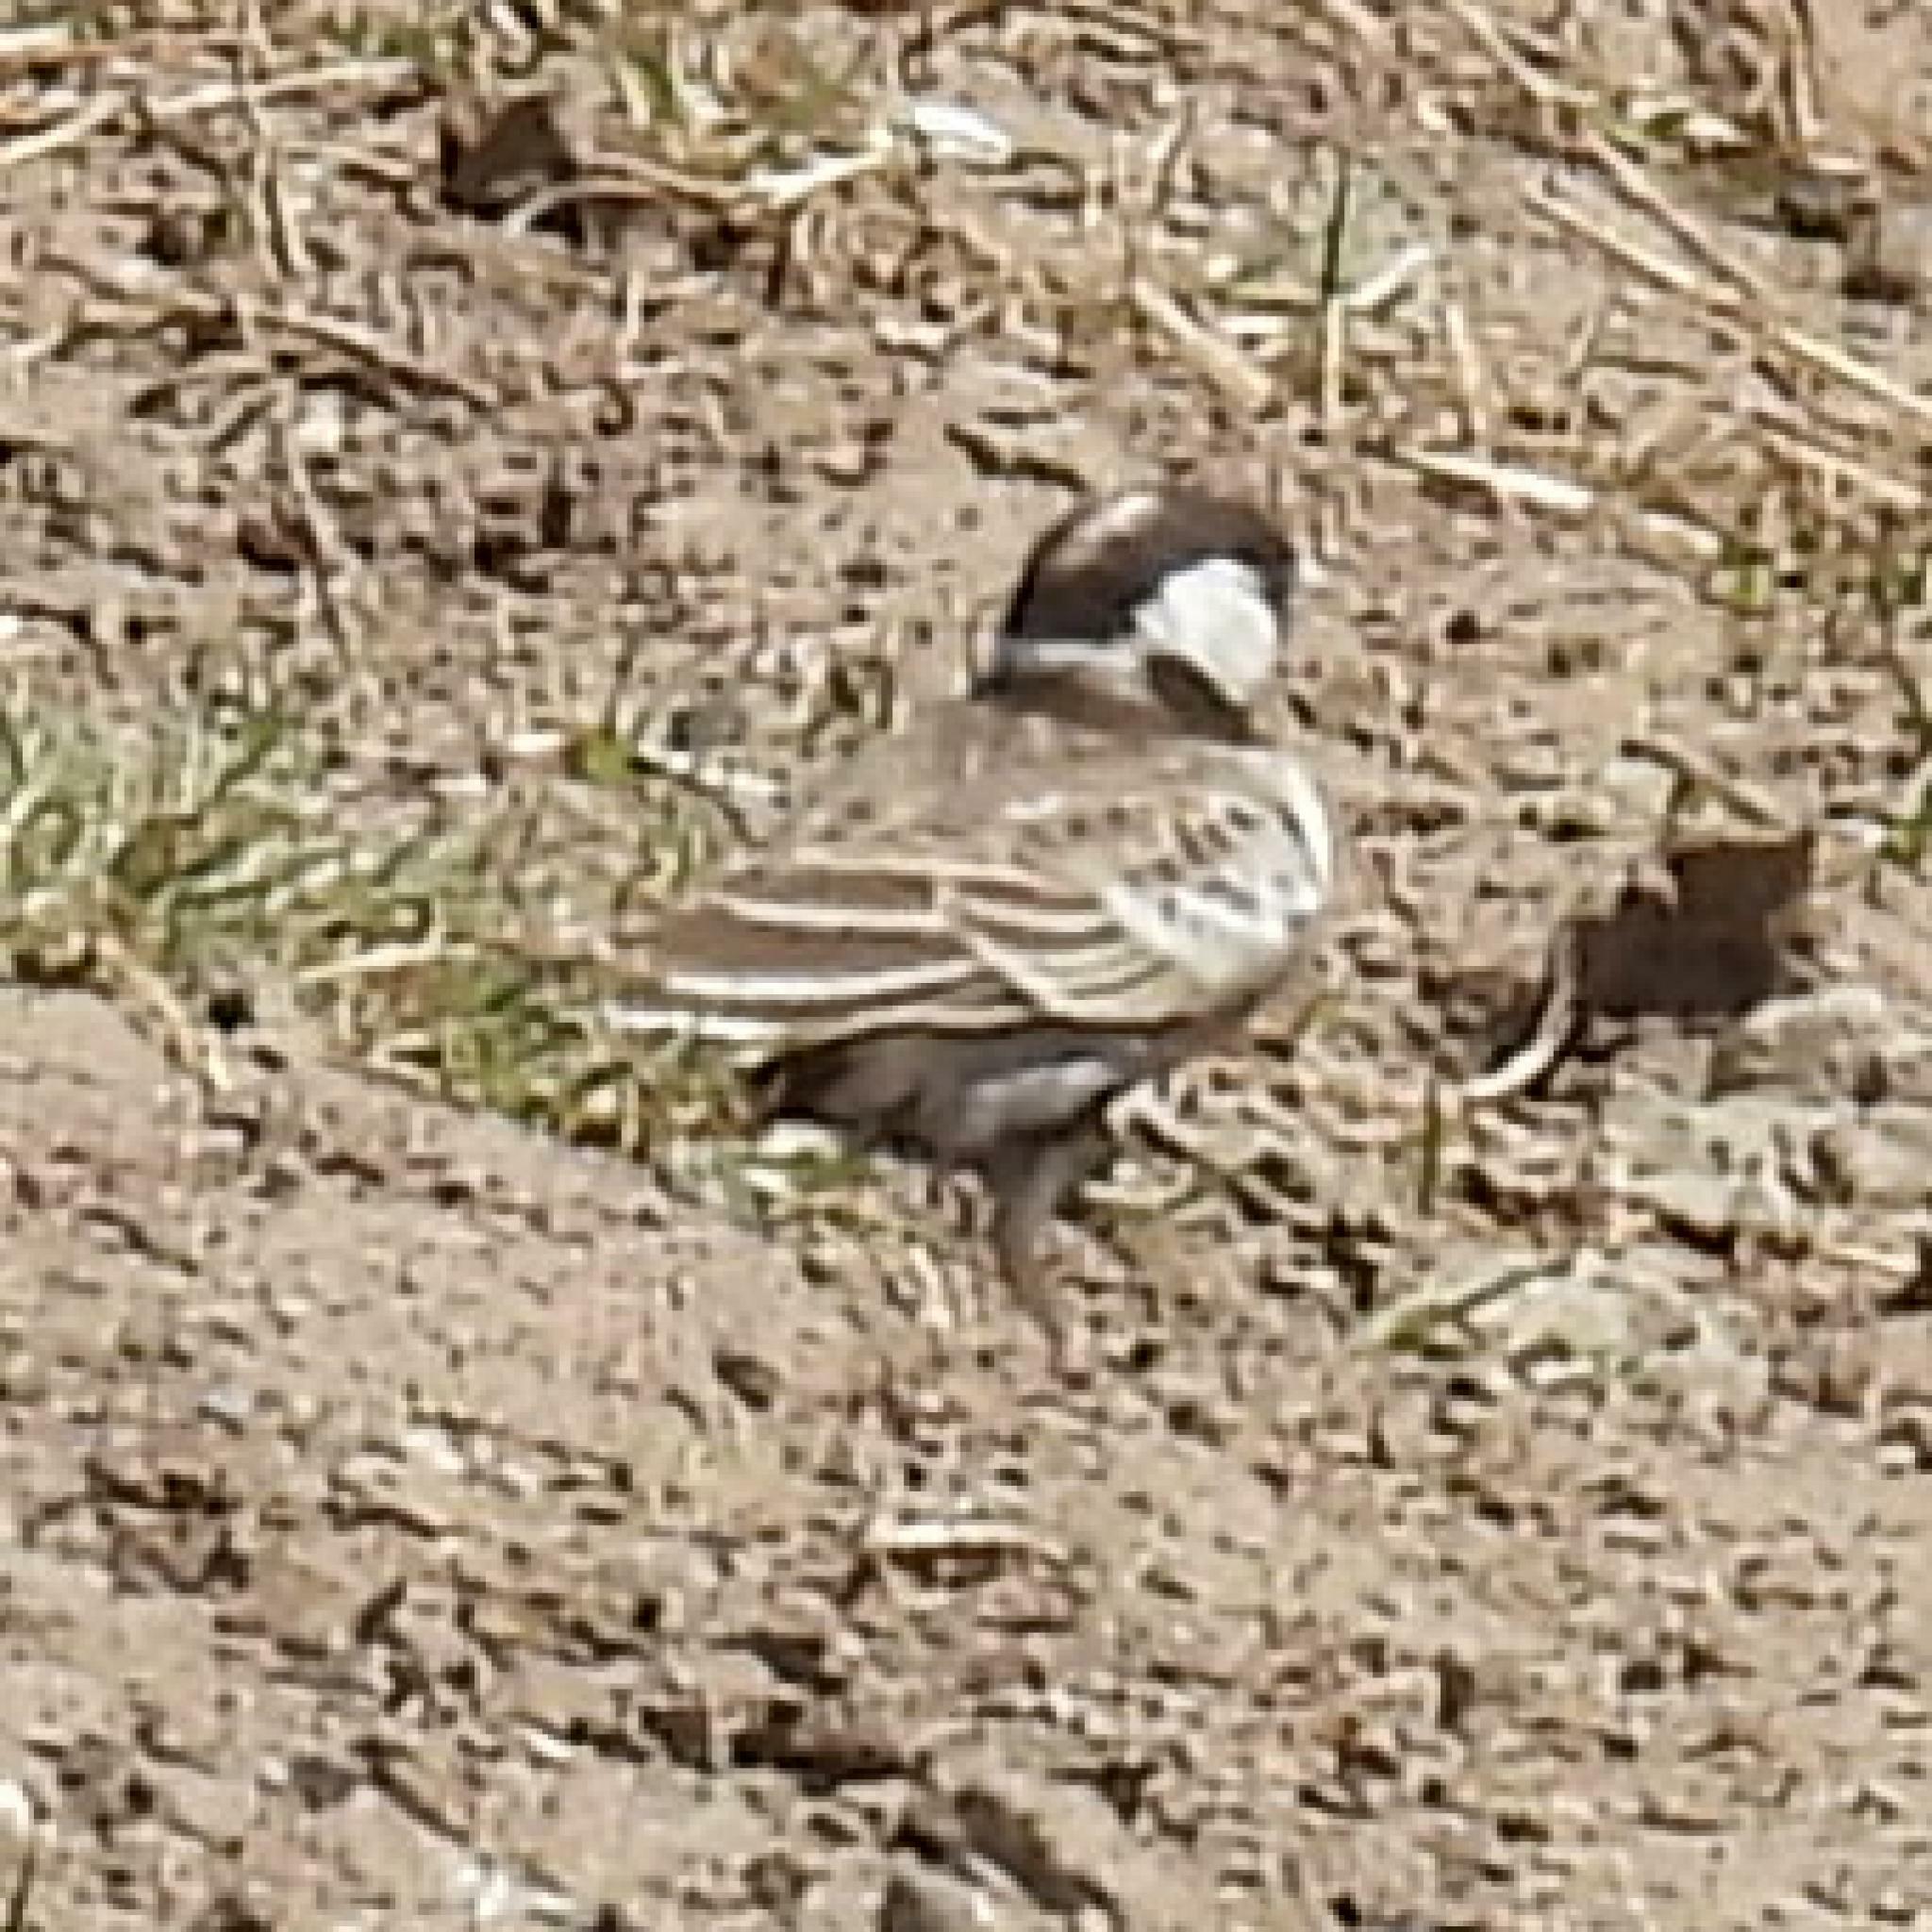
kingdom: Animalia
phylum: Chordata
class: Aves
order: Passeriformes
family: Alaudidae
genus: Eremopterix
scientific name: Eremopterix verticalis
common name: Grey-backed sparrow-lark
